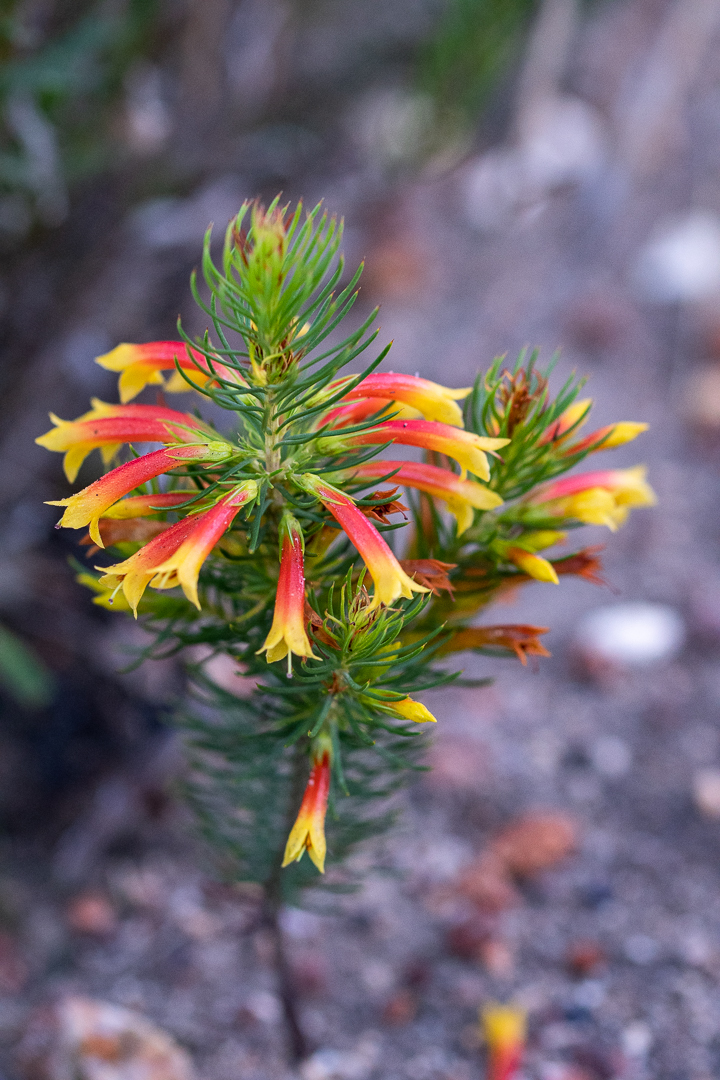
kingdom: Plantae
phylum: Tracheophyta
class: Magnoliopsida
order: Ericales
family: Ericaceae
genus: Erica
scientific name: Erica grandiflora
